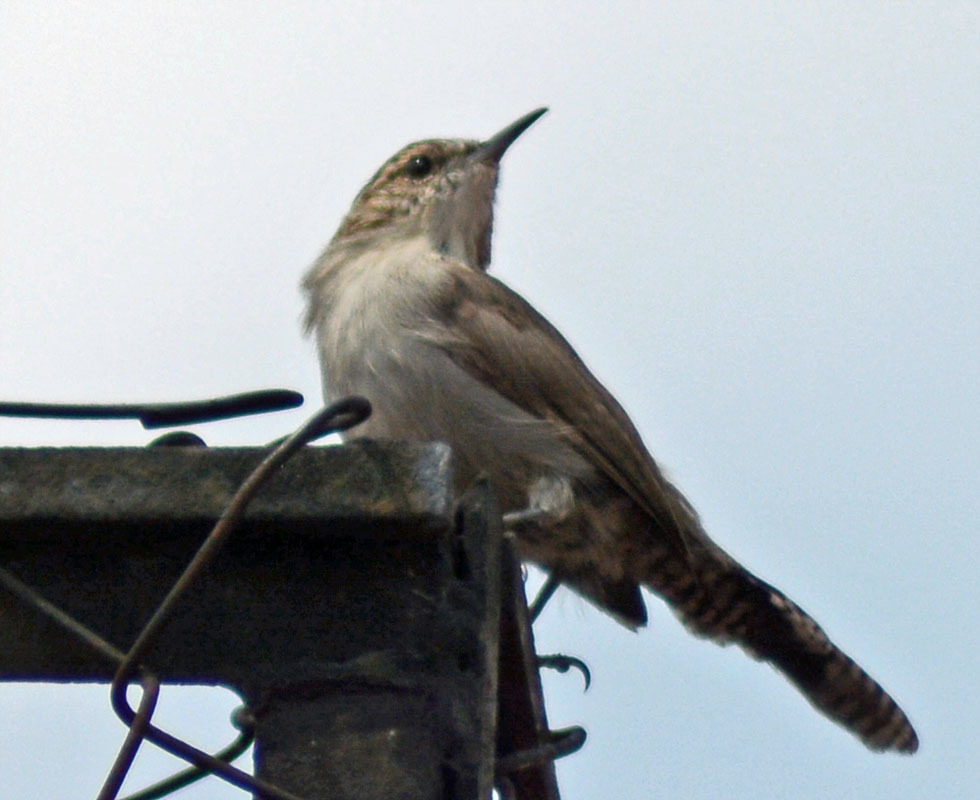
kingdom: Animalia
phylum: Chordata
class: Aves
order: Passeriformes
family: Troglodytidae
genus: Thryomanes
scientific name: Thryomanes bewickii
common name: Bewick's wren
